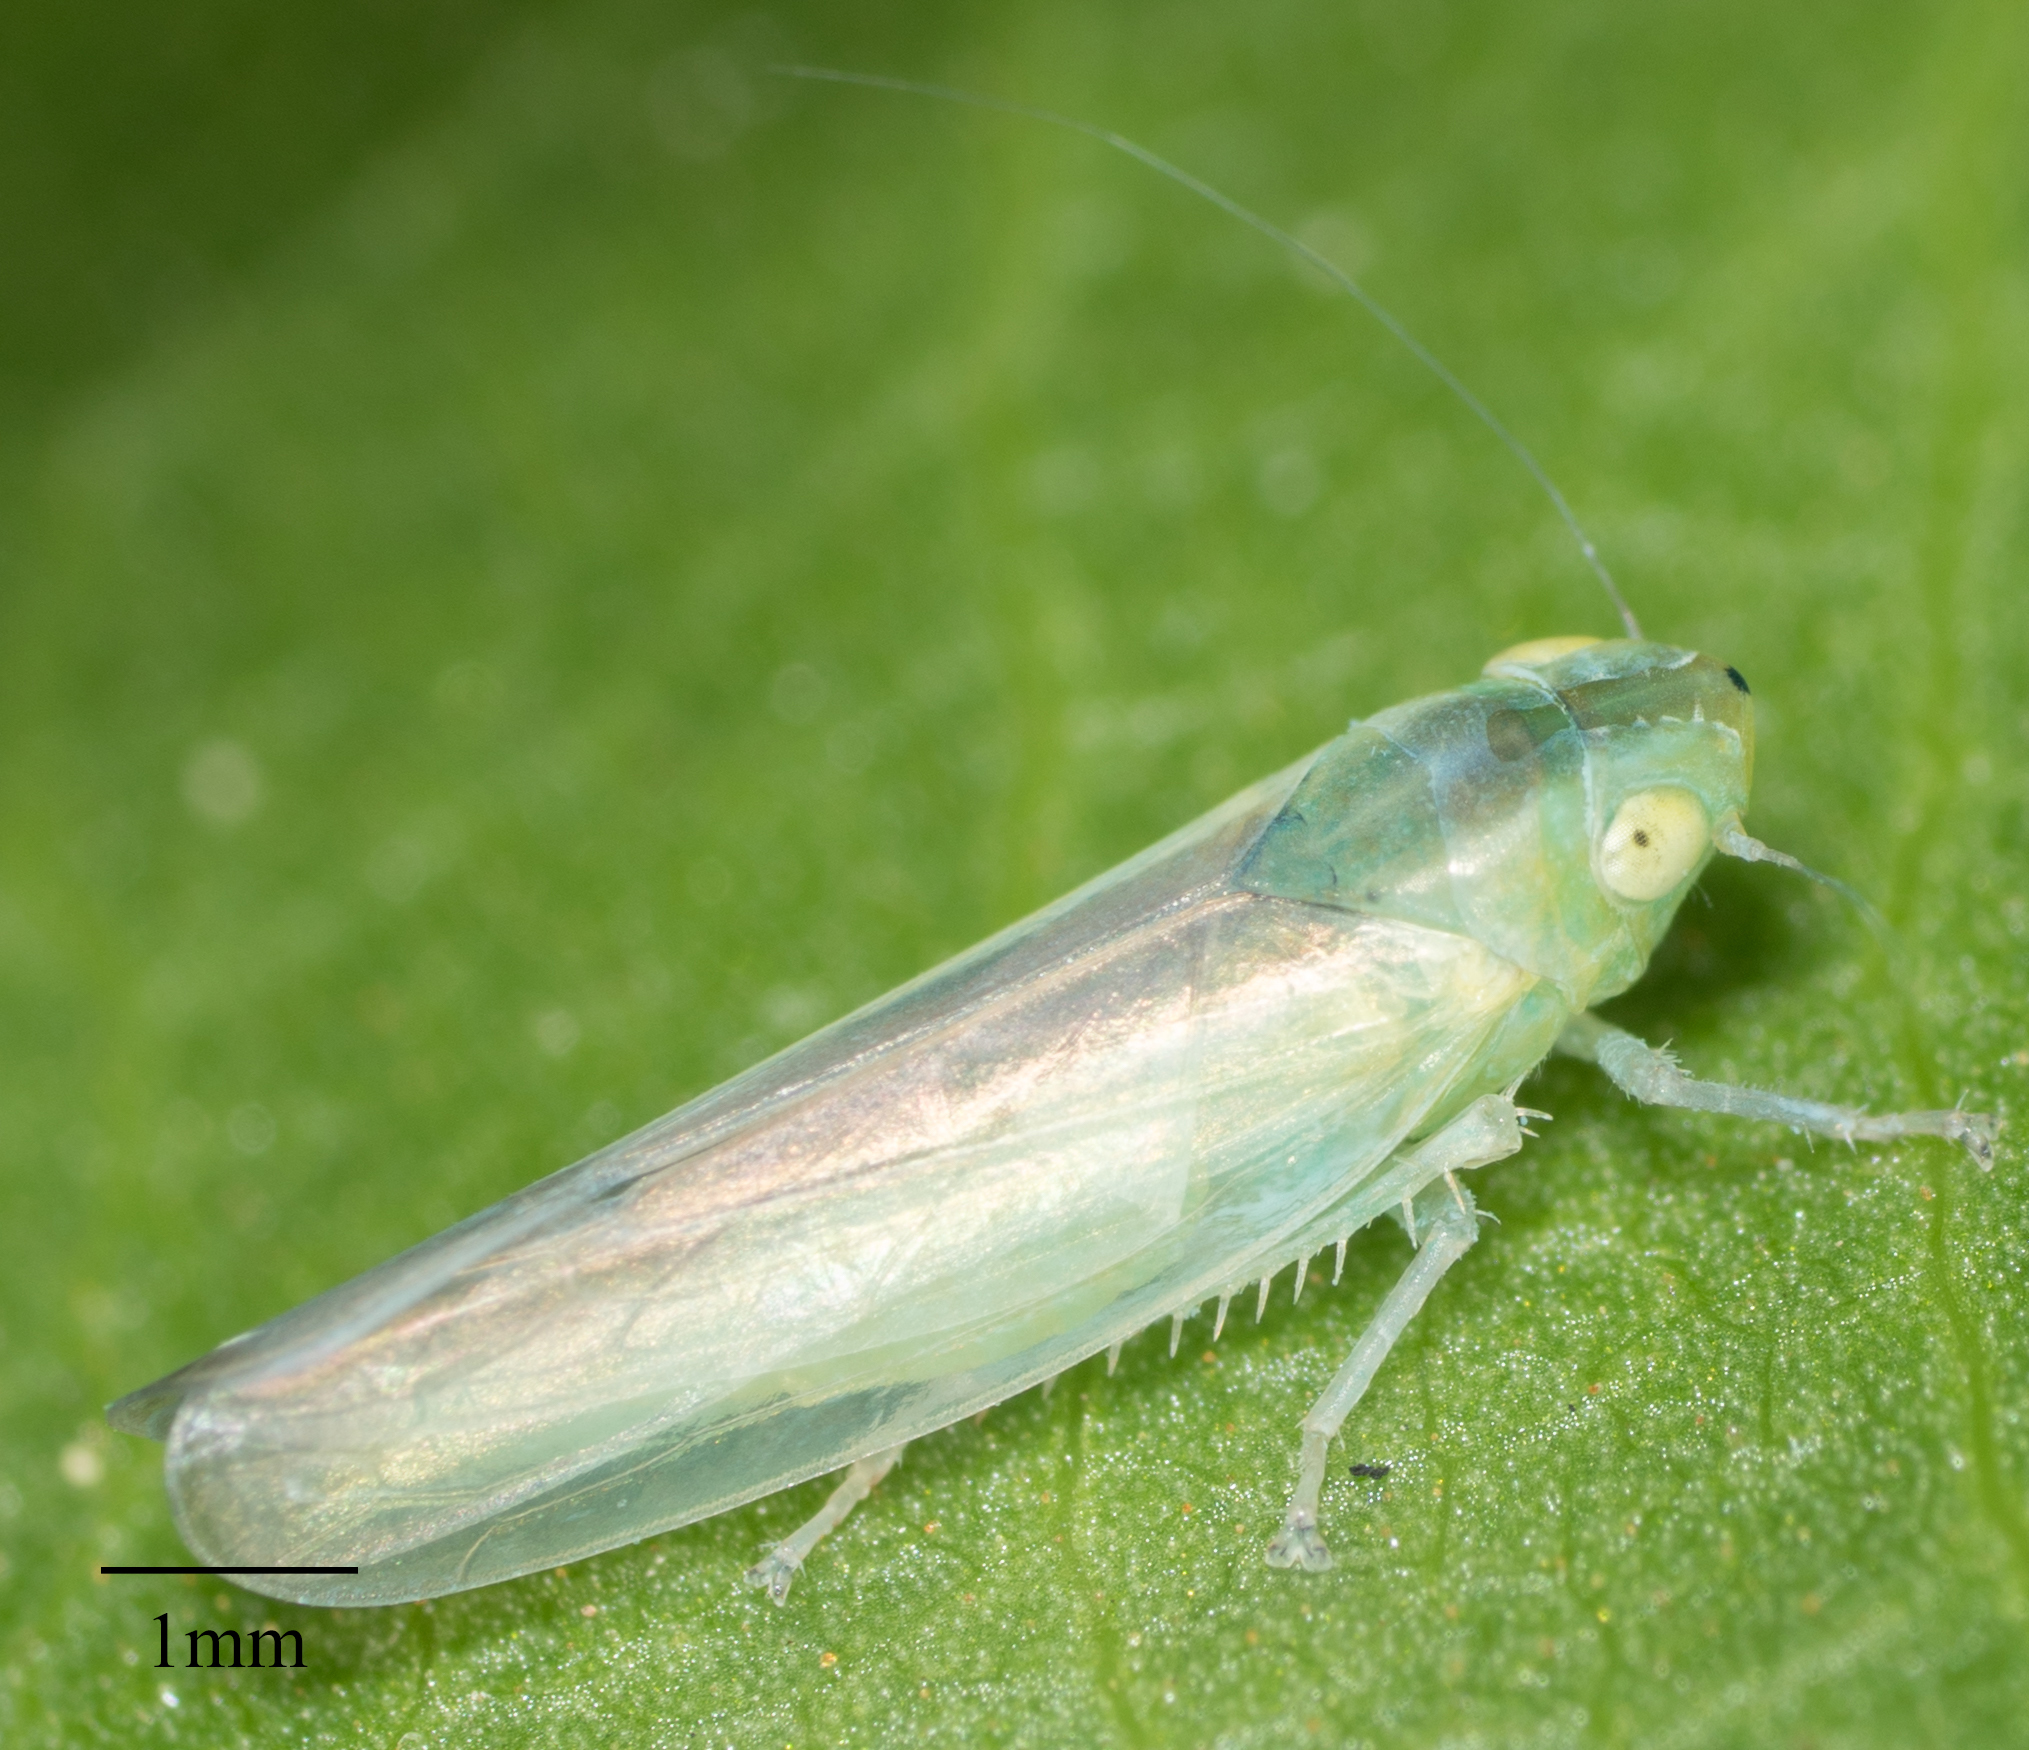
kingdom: Animalia
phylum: Arthropoda
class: Insecta
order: Hemiptera
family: Cicadellidae
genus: Neocoelidia
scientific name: Neocoelidia fuscovittata
